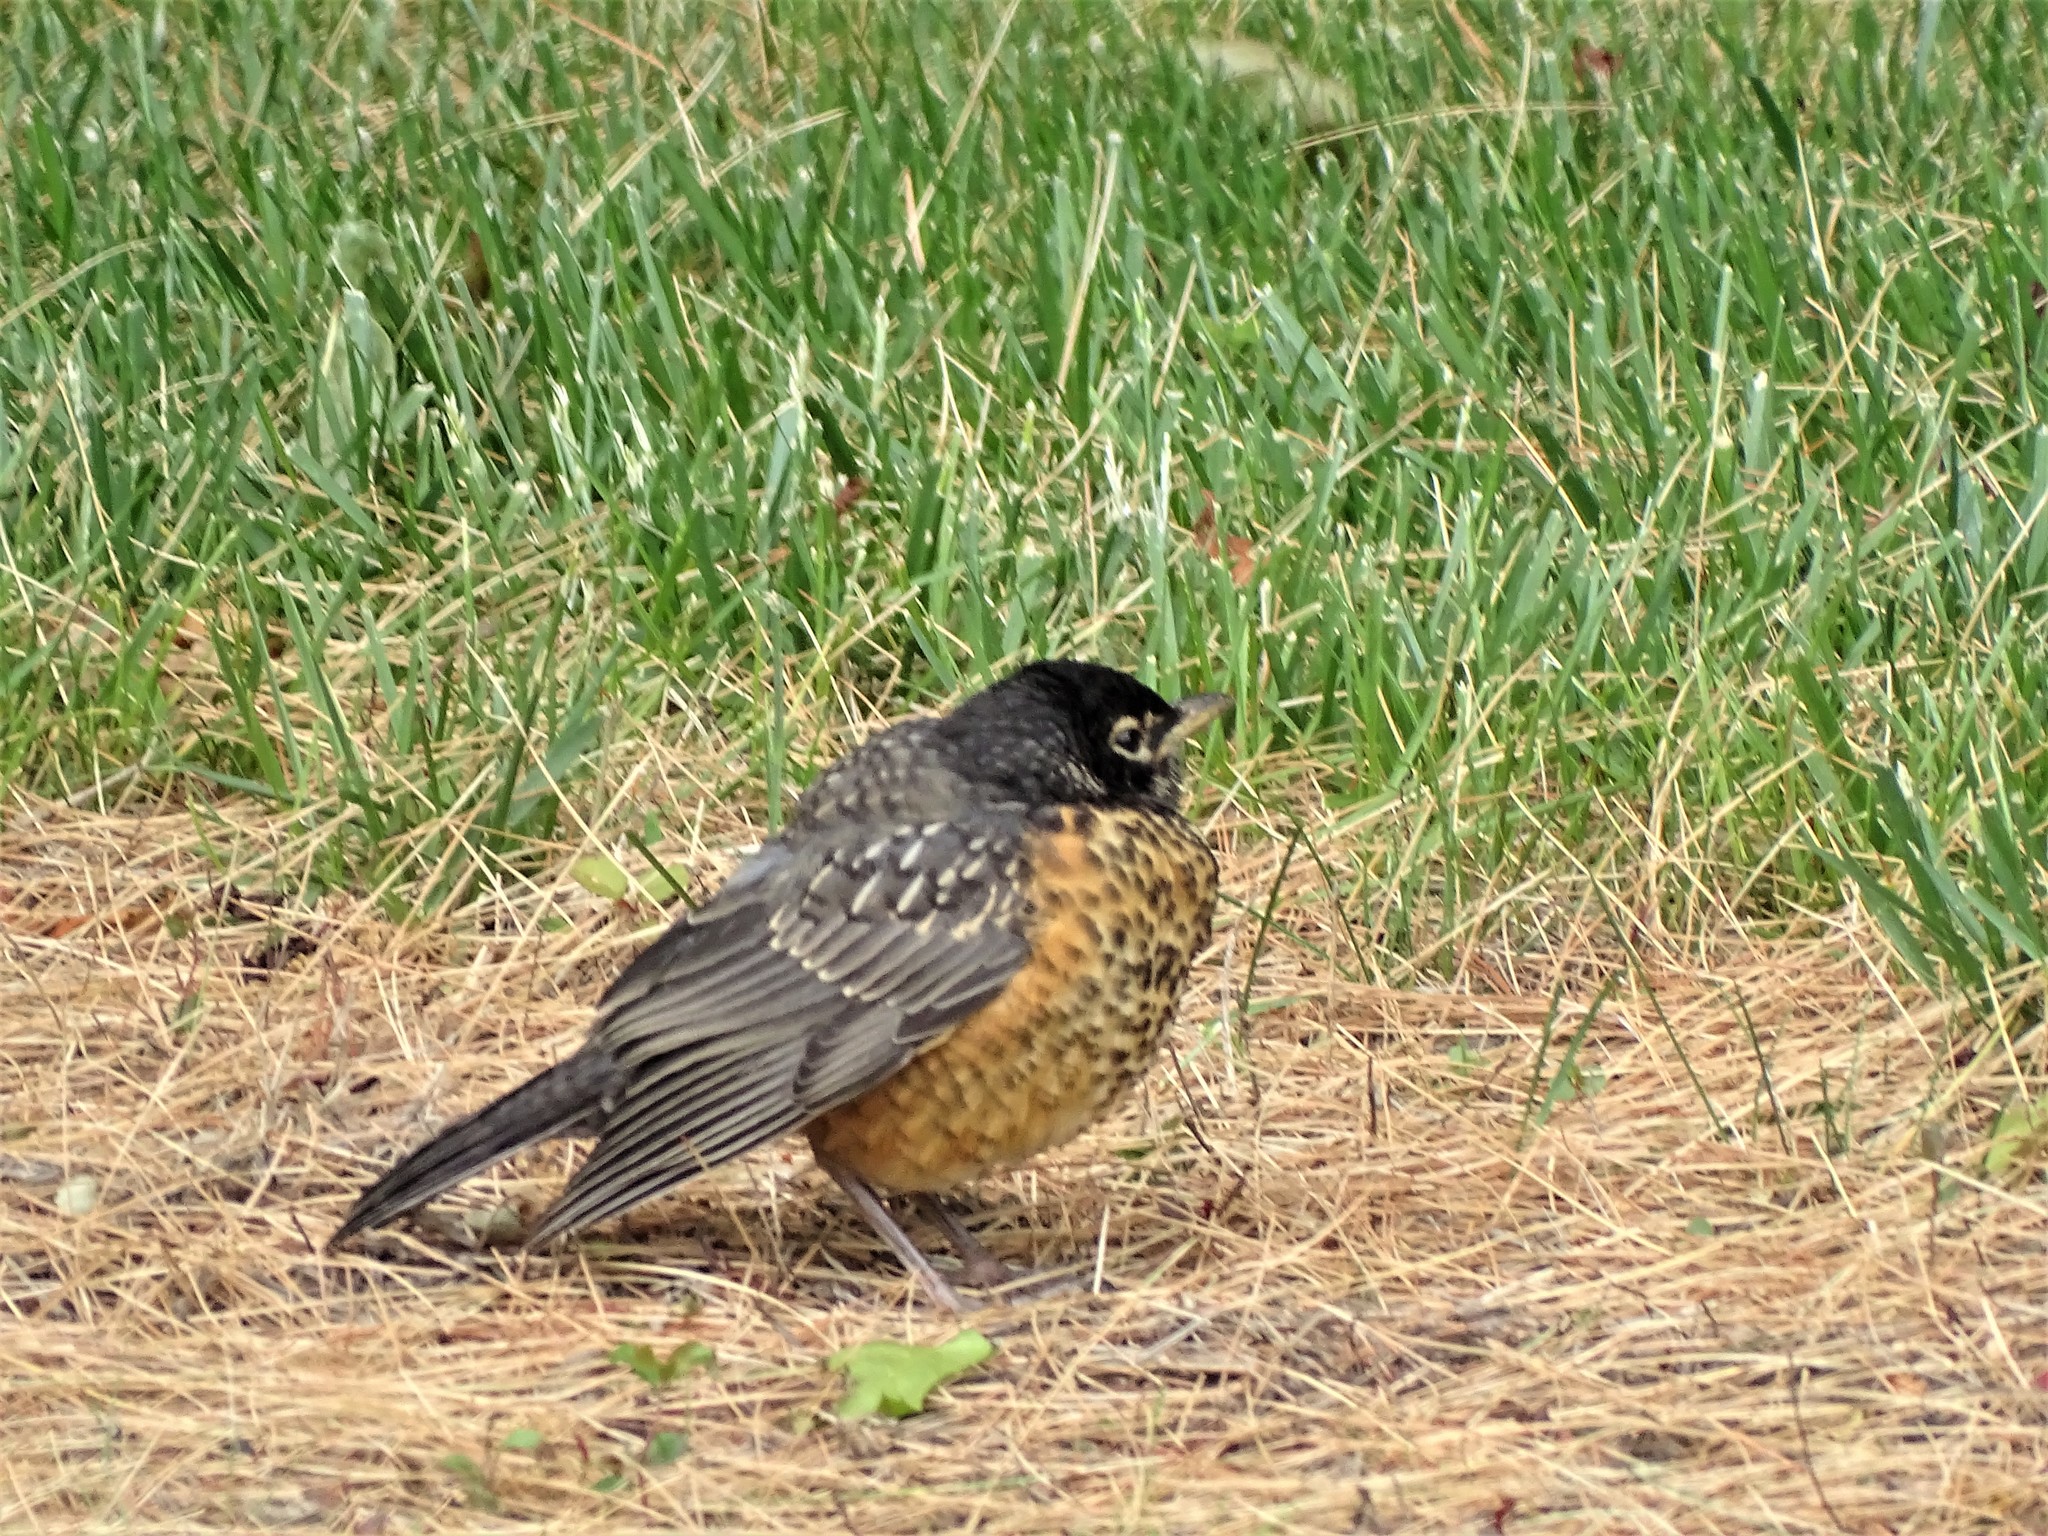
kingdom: Animalia
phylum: Chordata
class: Aves
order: Passeriformes
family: Turdidae
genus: Turdus
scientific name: Turdus migratorius
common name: American robin
